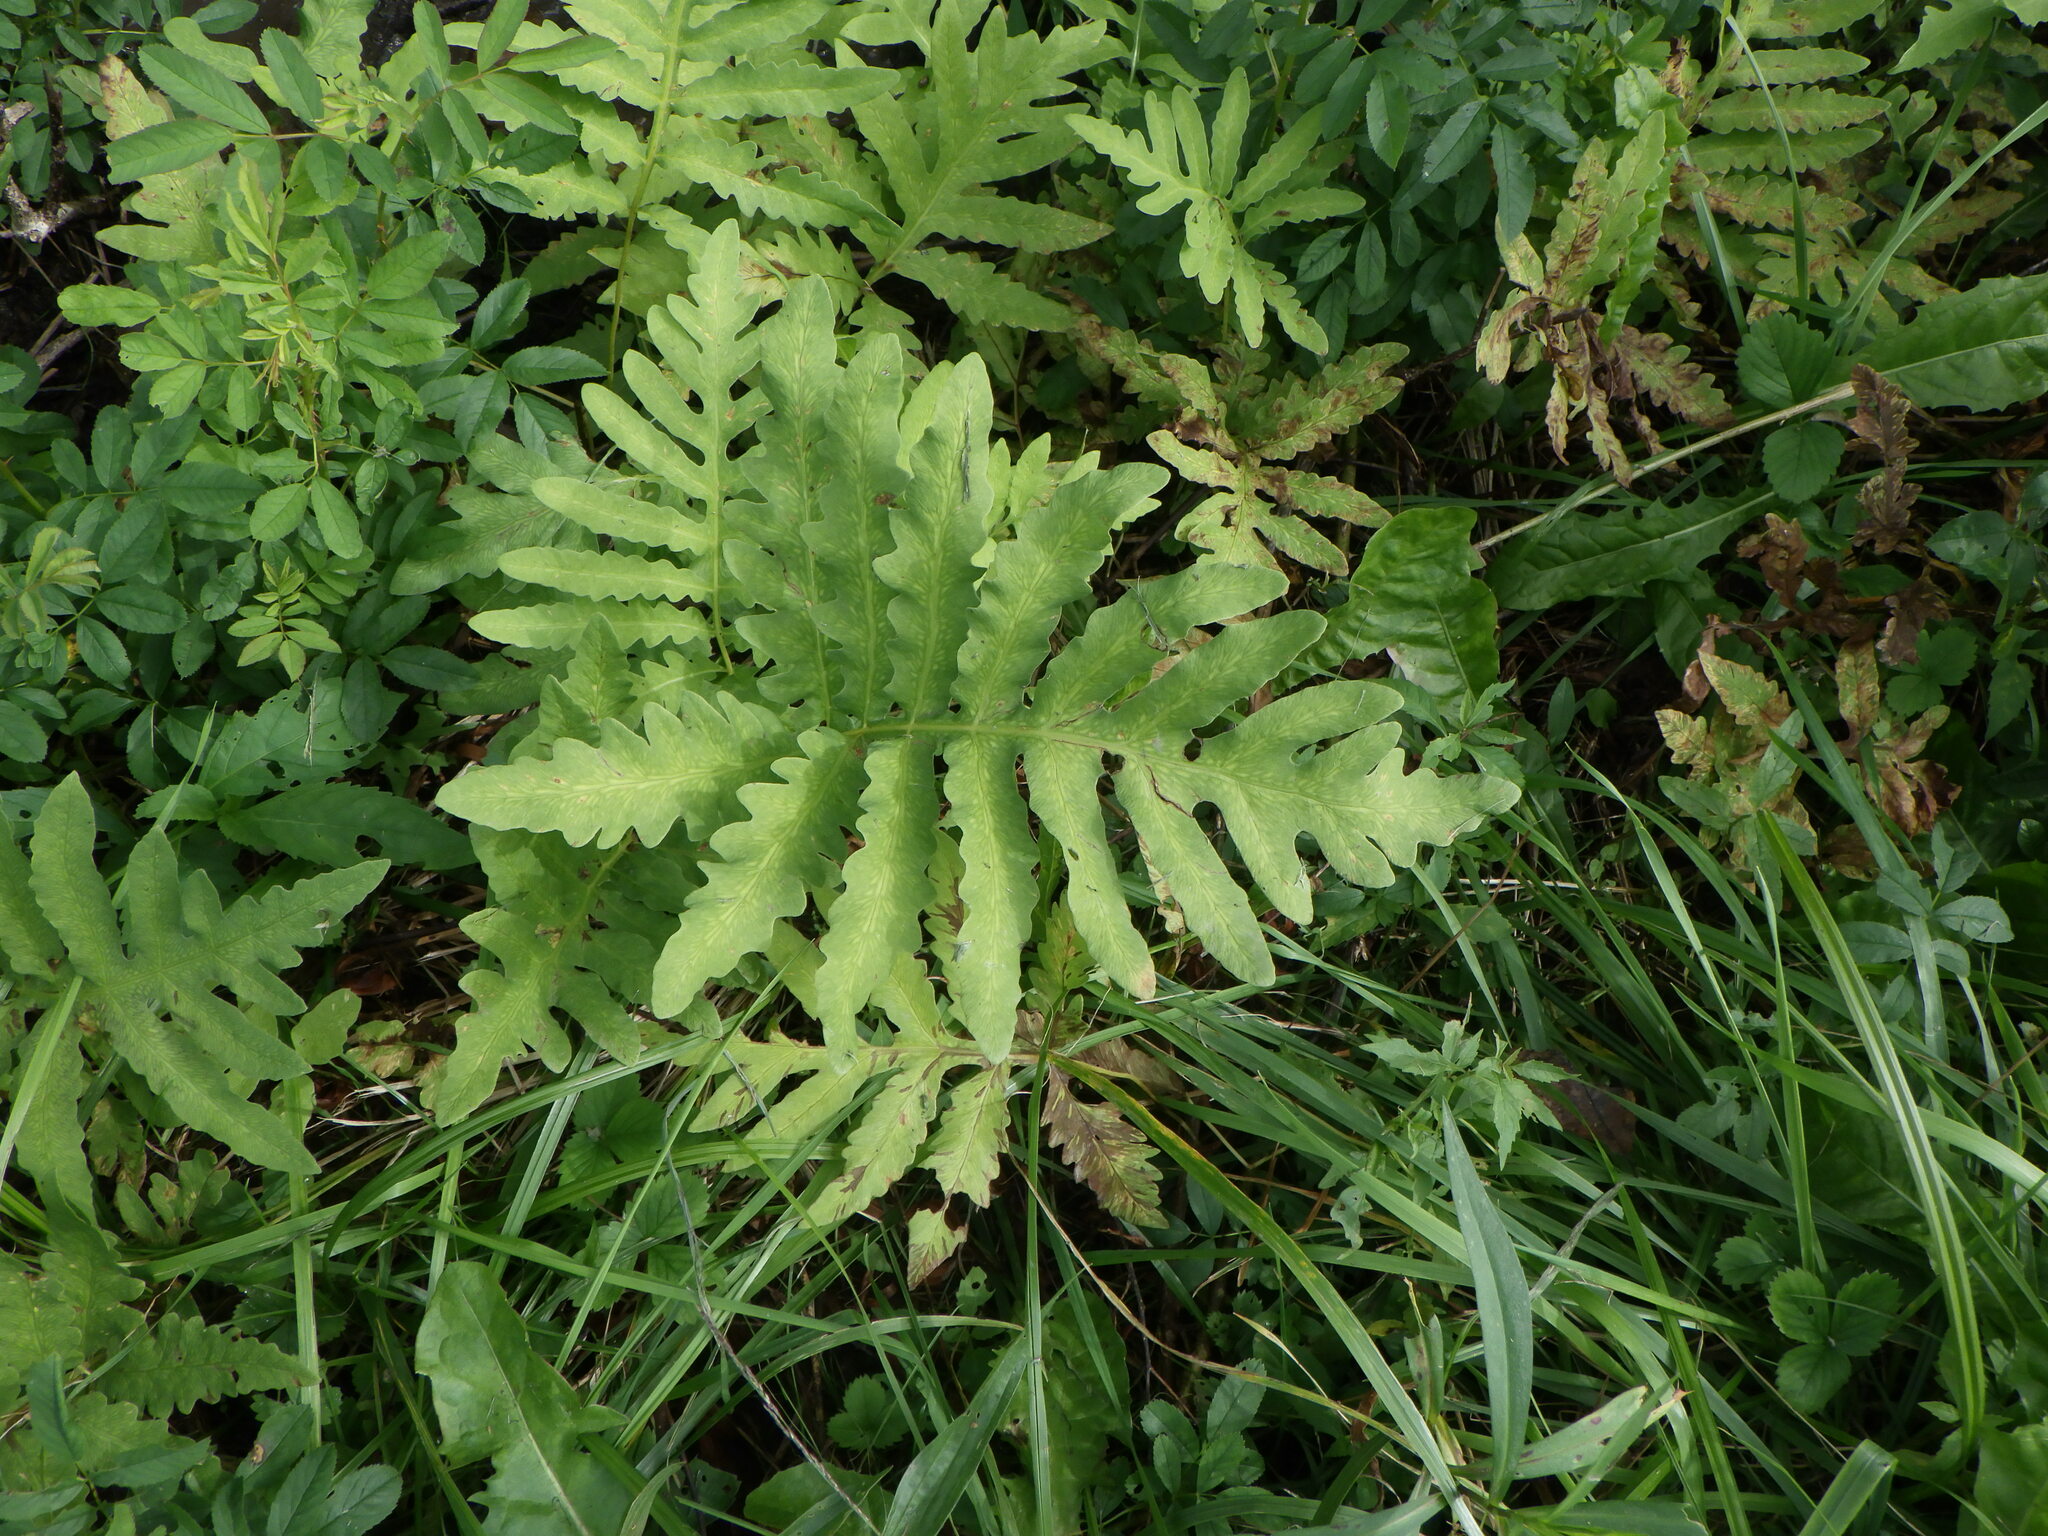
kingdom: Plantae
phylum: Tracheophyta
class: Polypodiopsida
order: Polypodiales
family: Onocleaceae
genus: Onoclea
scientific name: Onoclea sensibilis
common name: Sensitive fern
